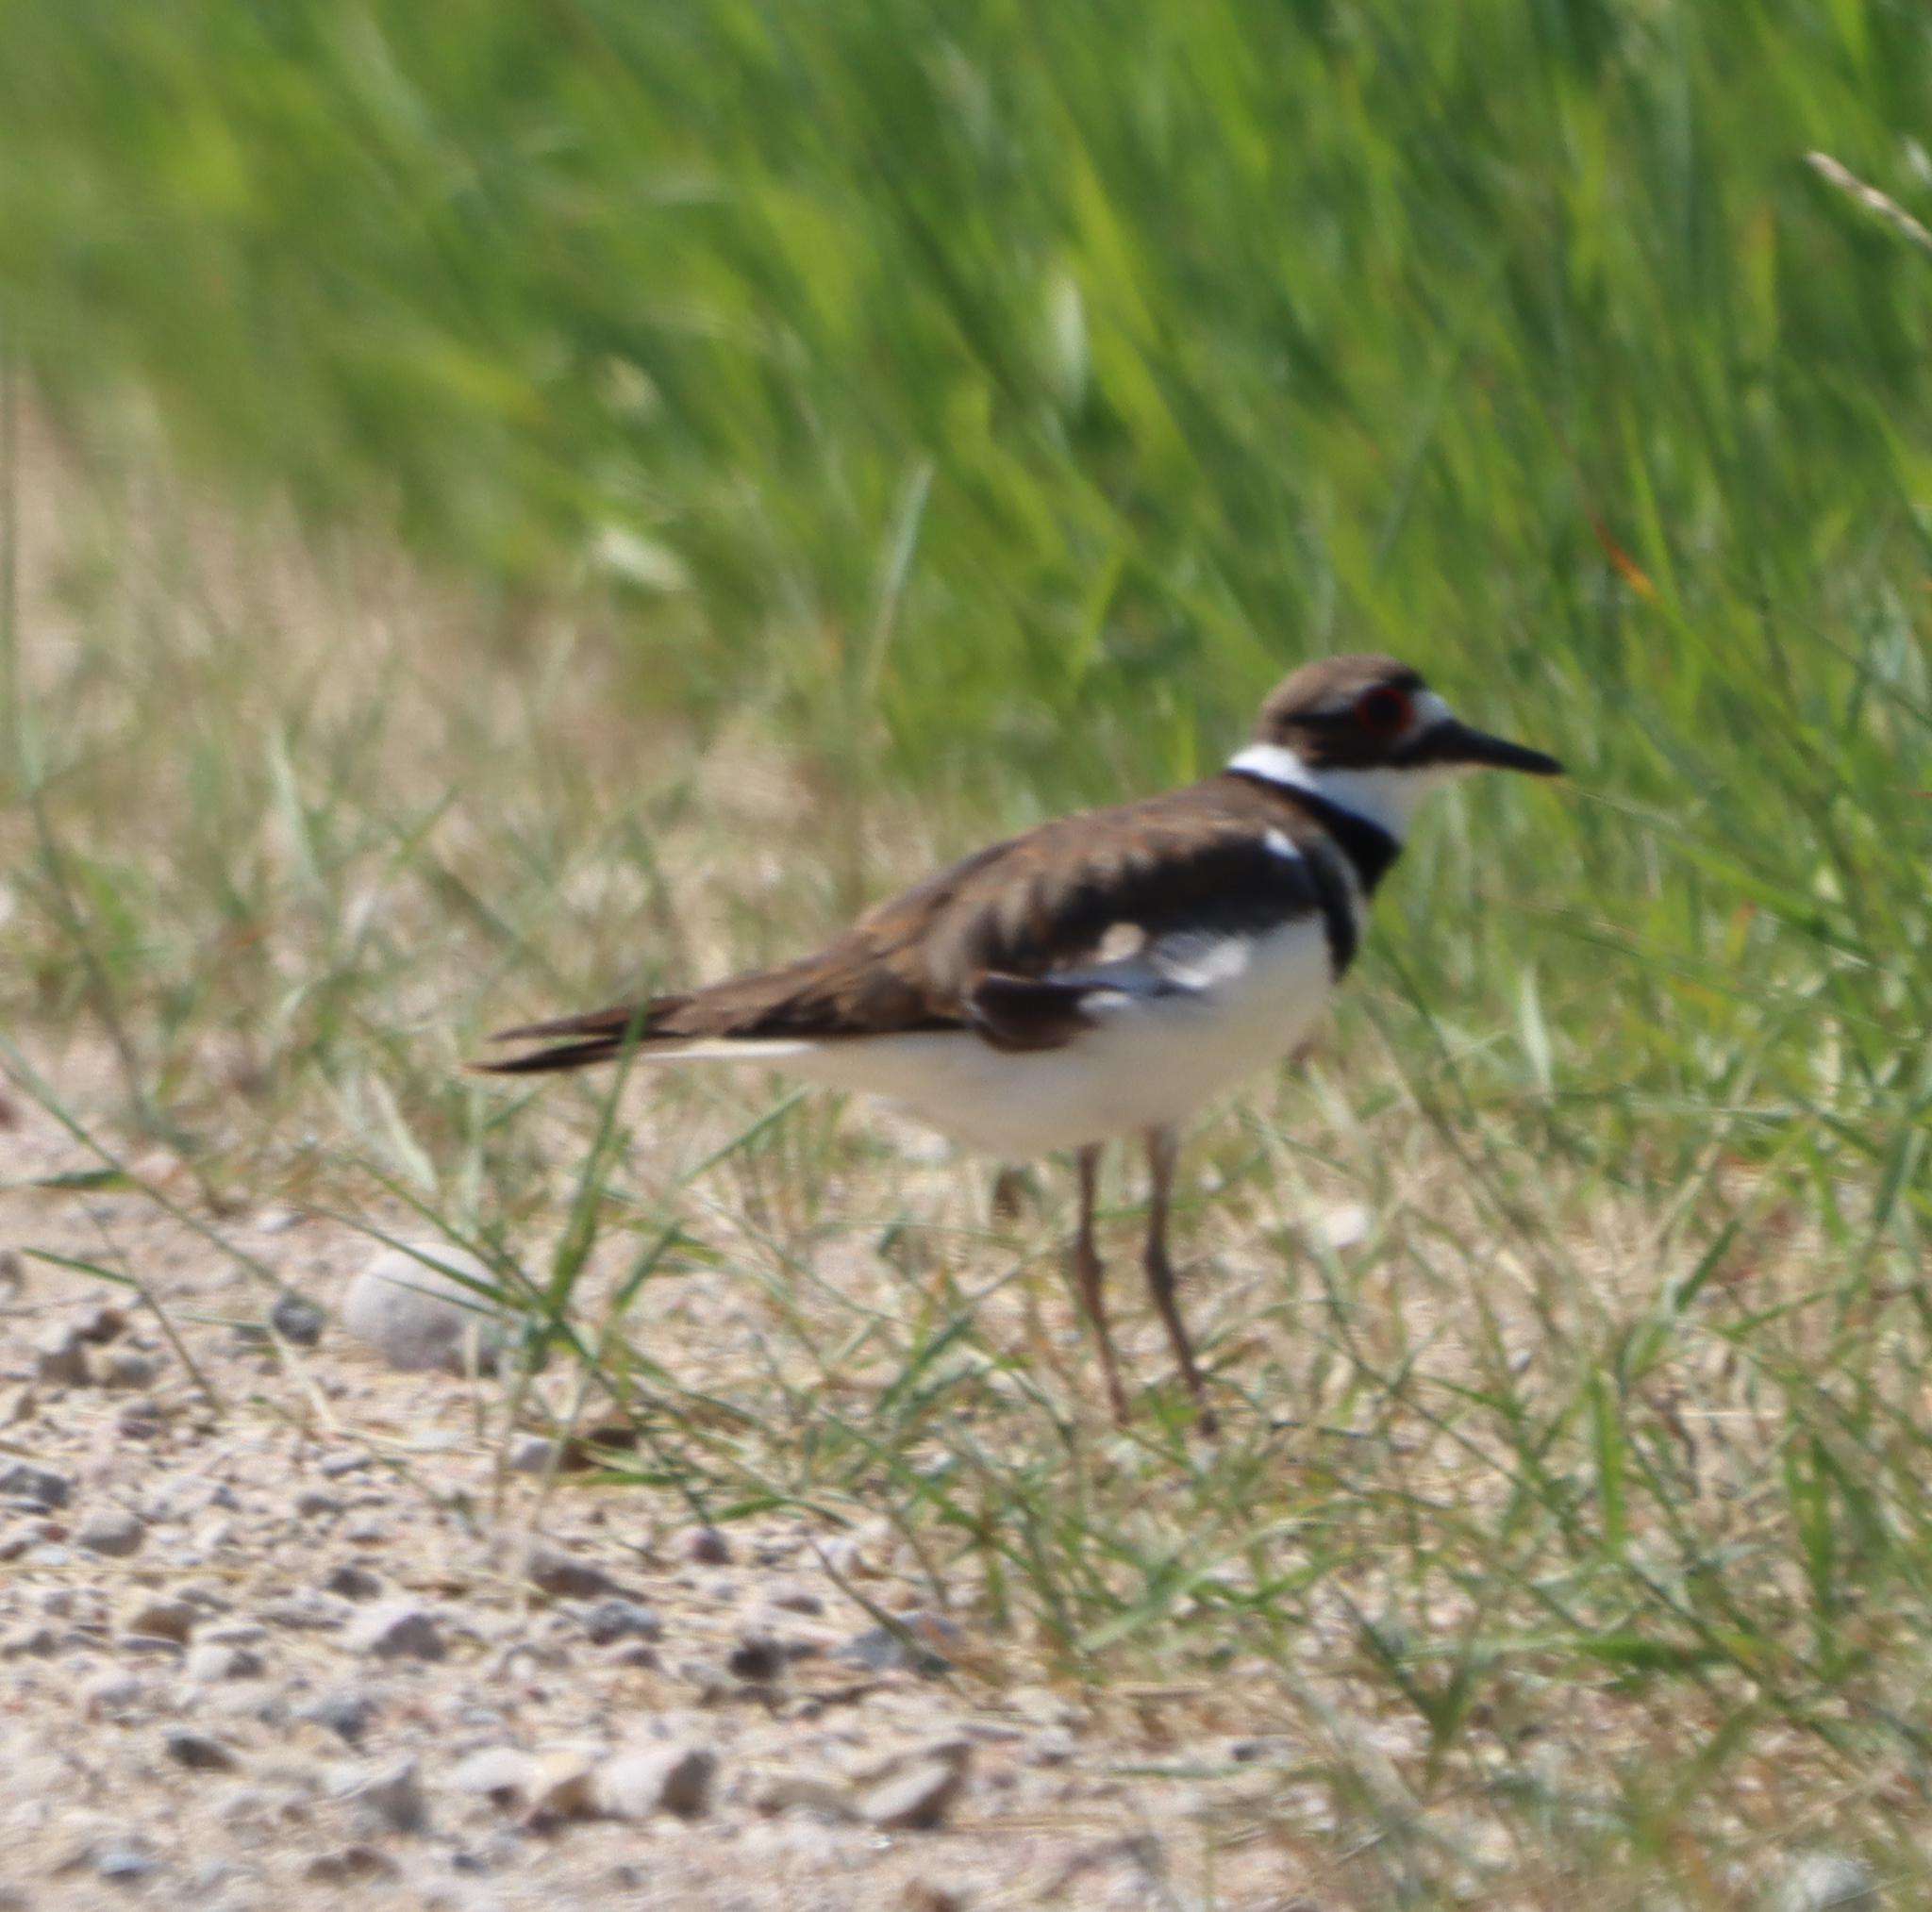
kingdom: Animalia
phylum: Chordata
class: Aves
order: Charadriiformes
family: Charadriidae
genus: Charadrius
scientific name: Charadrius vociferus
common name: Killdeer
